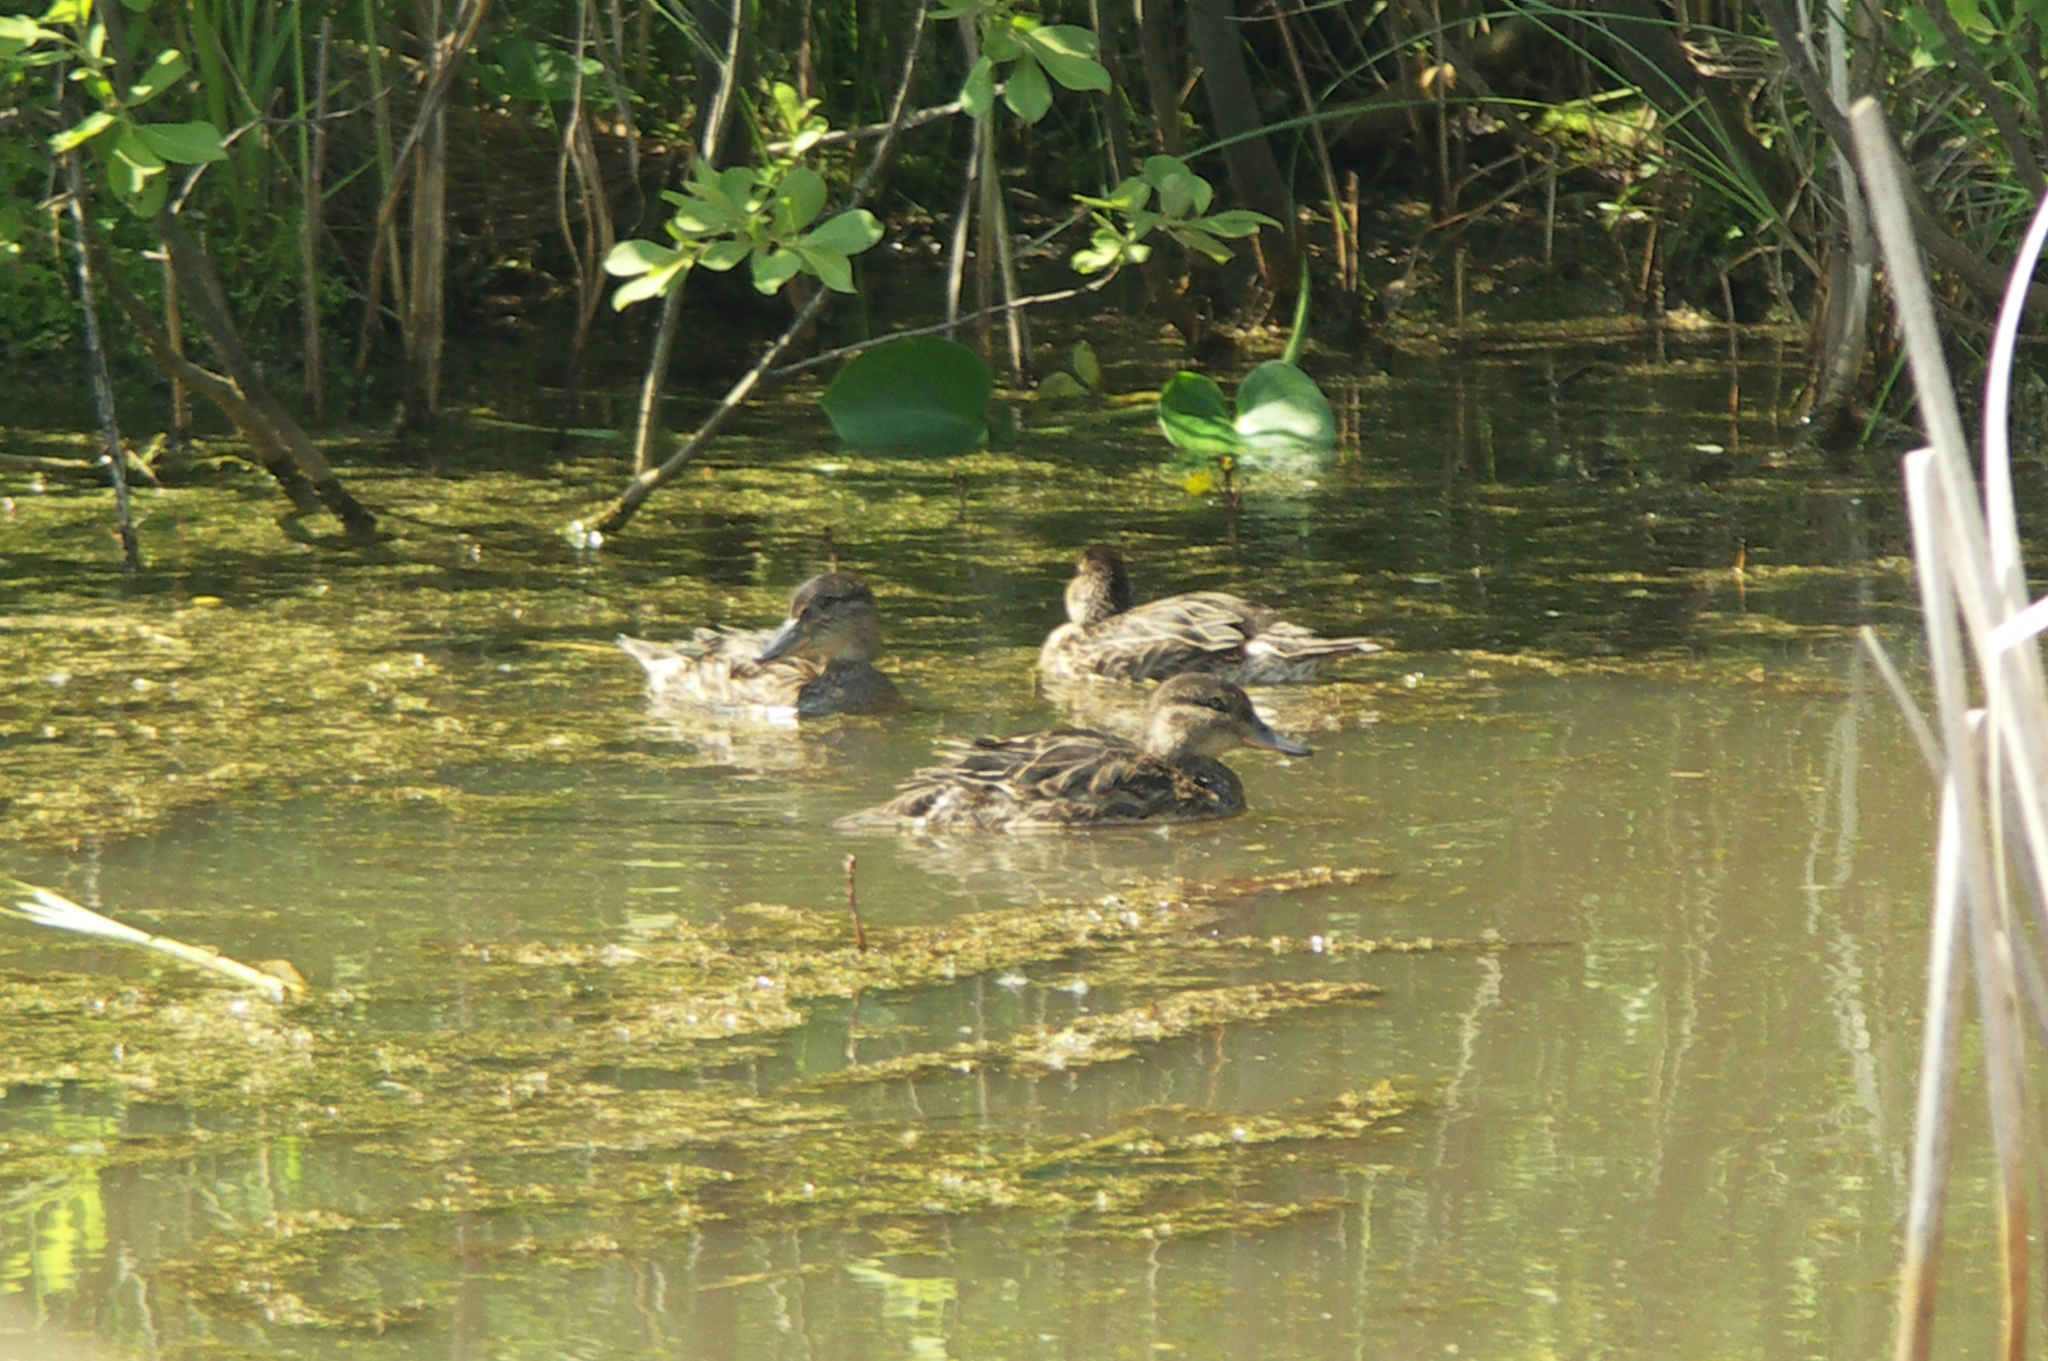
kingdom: Animalia
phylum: Chordata
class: Aves
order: Anseriformes
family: Anatidae
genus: Anas
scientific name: Anas platyrhynchos
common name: Mallard
